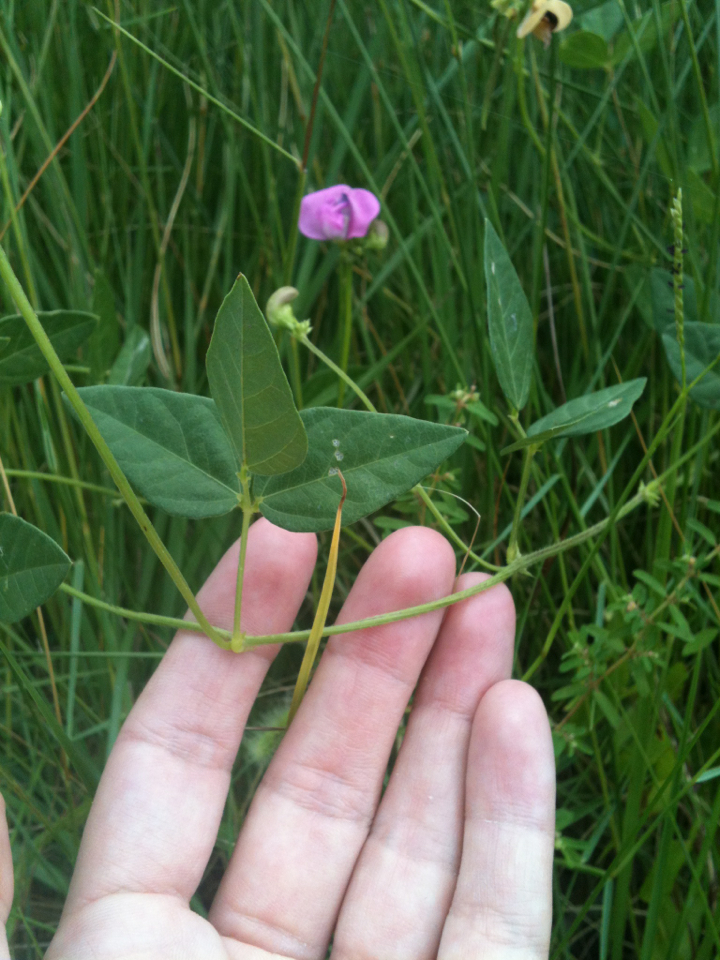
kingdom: Plantae
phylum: Tracheophyta
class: Magnoliopsida
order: Fabales
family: Fabaceae
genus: Strophostyles
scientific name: Strophostyles umbellata
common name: Perennial wild bean
